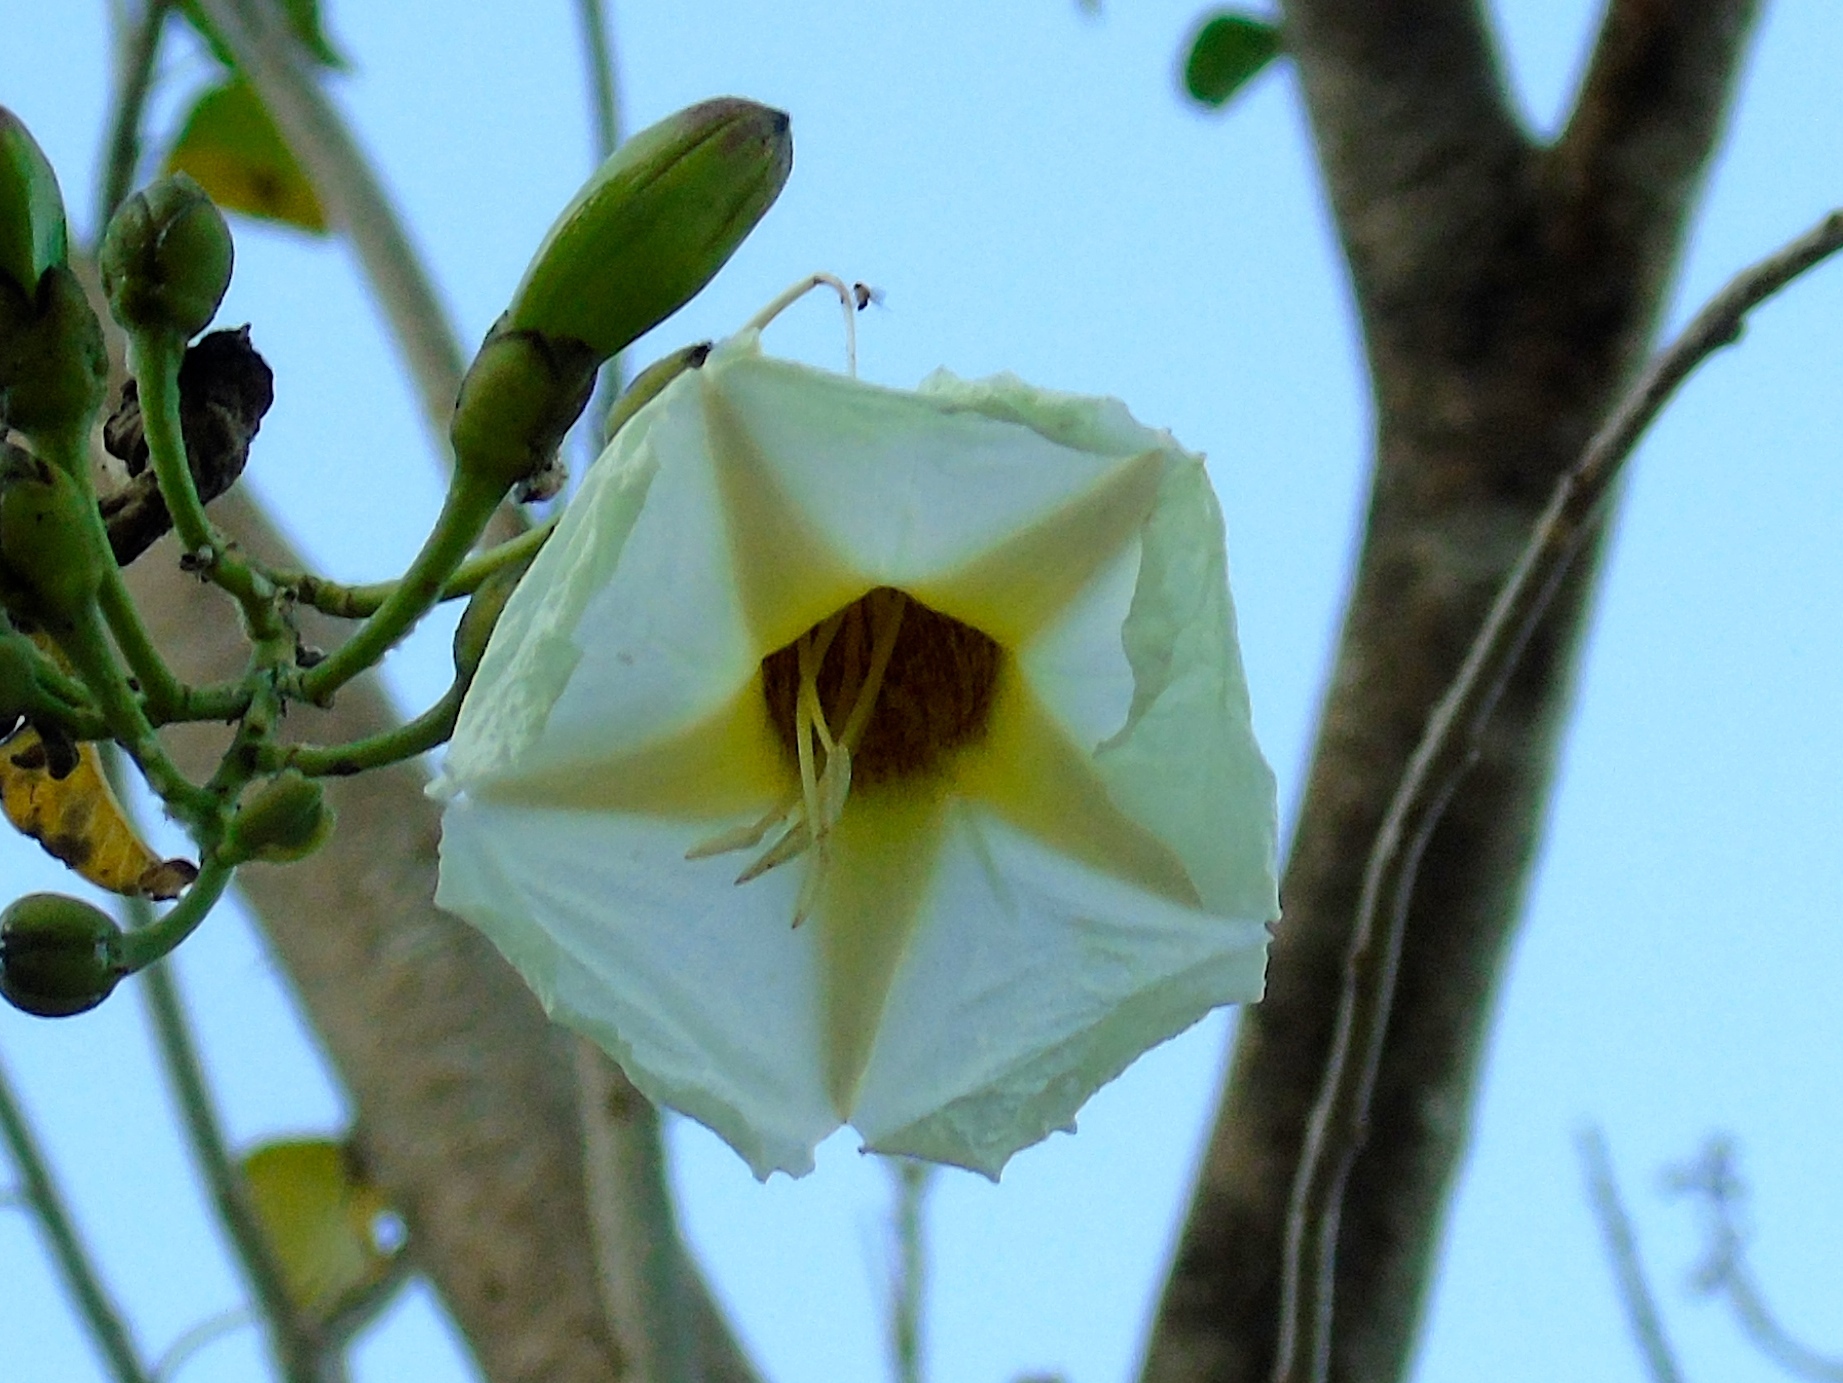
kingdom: Plantae
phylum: Tracheophyta
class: Magnoliopsida
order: Solanales
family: Convolvulaceae
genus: Ipomoea
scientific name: Ipomoea arborescens
